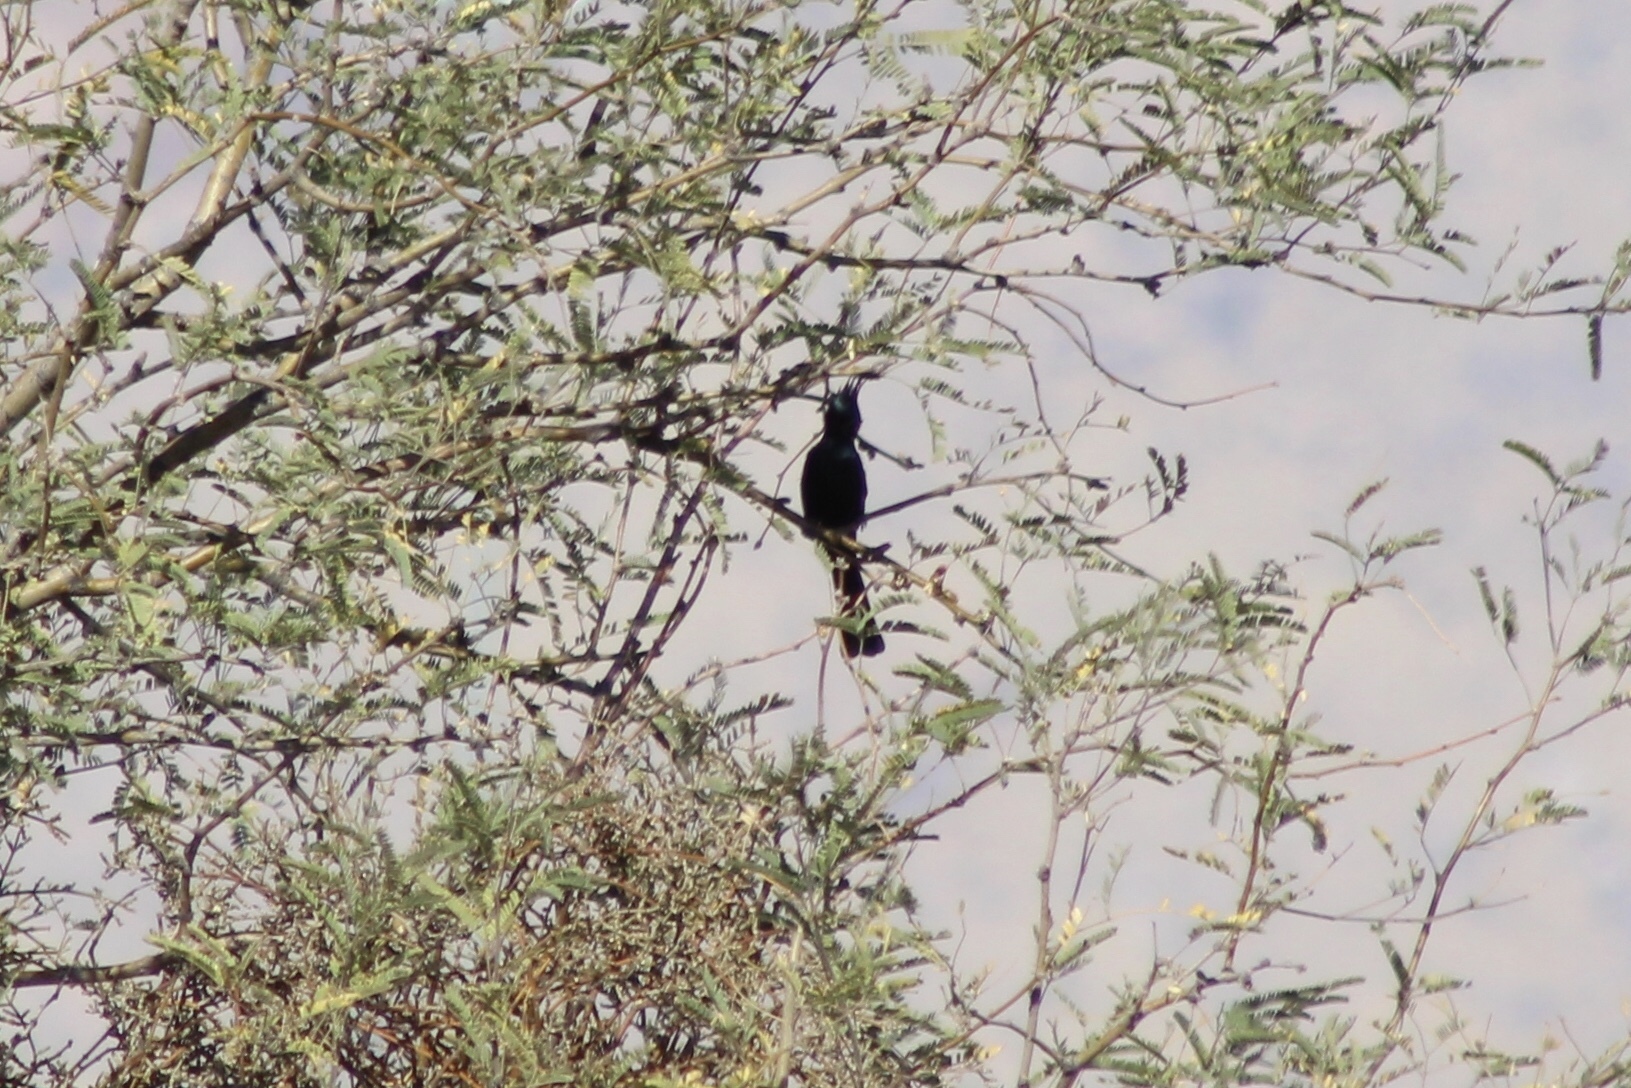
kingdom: Animalia
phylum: Chordata
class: Aves
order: Passeriformes
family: Ptilogonatidae
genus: Phainopepla
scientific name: Phainopepla nitens
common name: Phainopepla
